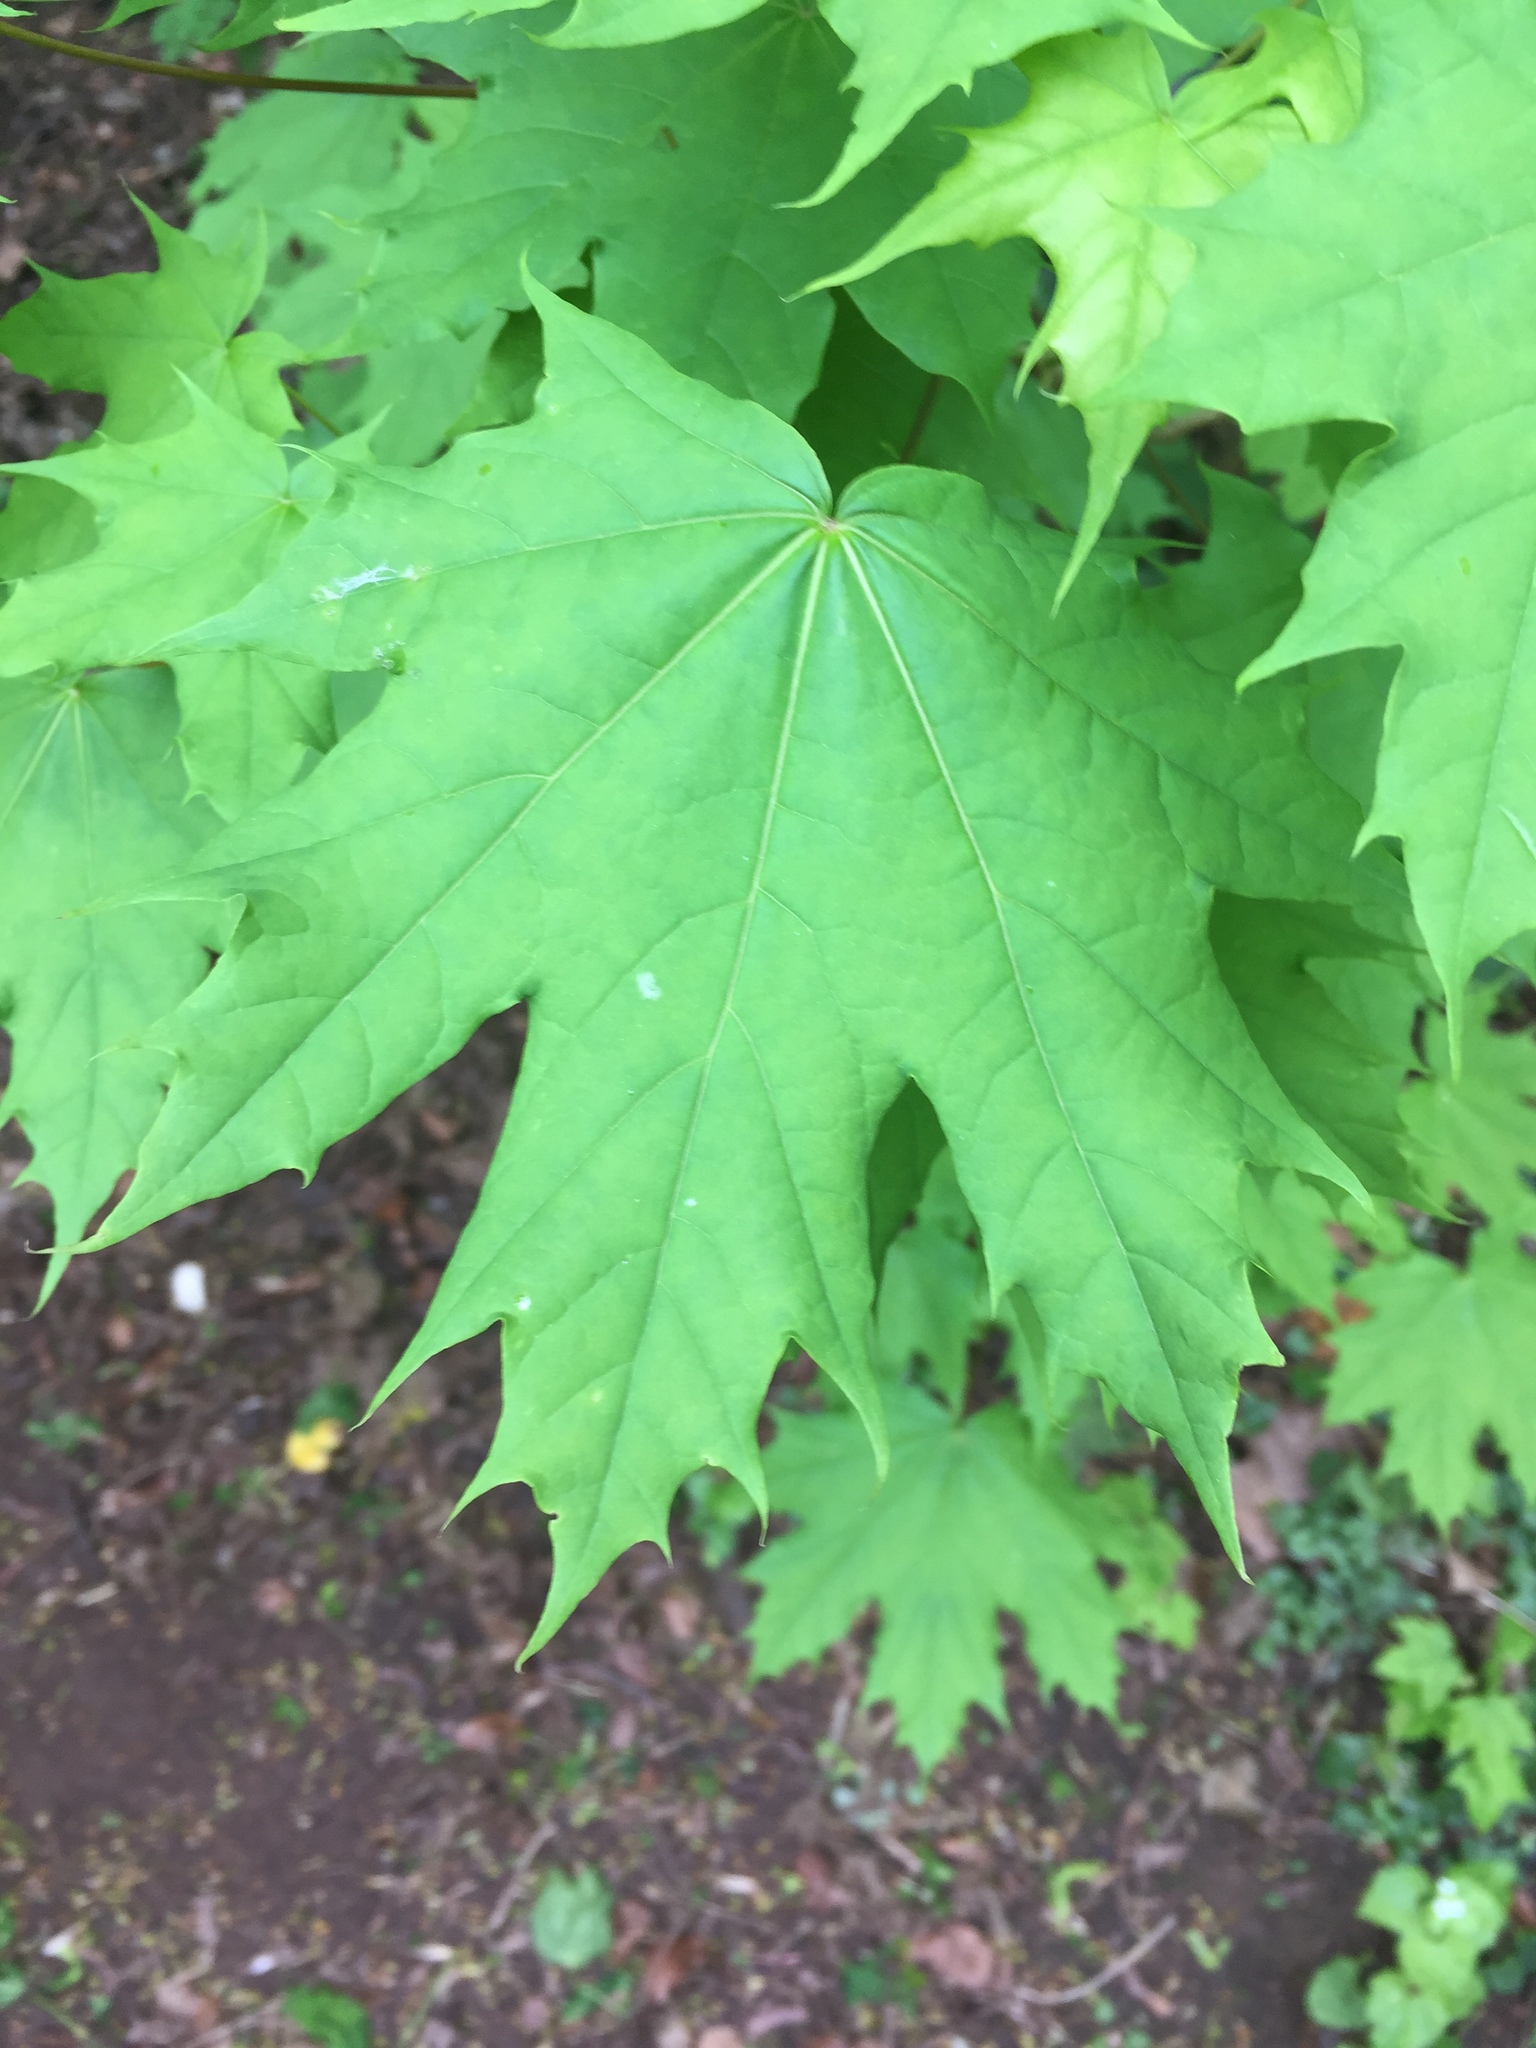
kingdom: Plantae
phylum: Tracheophyta
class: Magnoliopsida
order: Sapindales
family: Sapindaceae
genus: Acer
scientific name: Acer platanoides
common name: Norway maple
